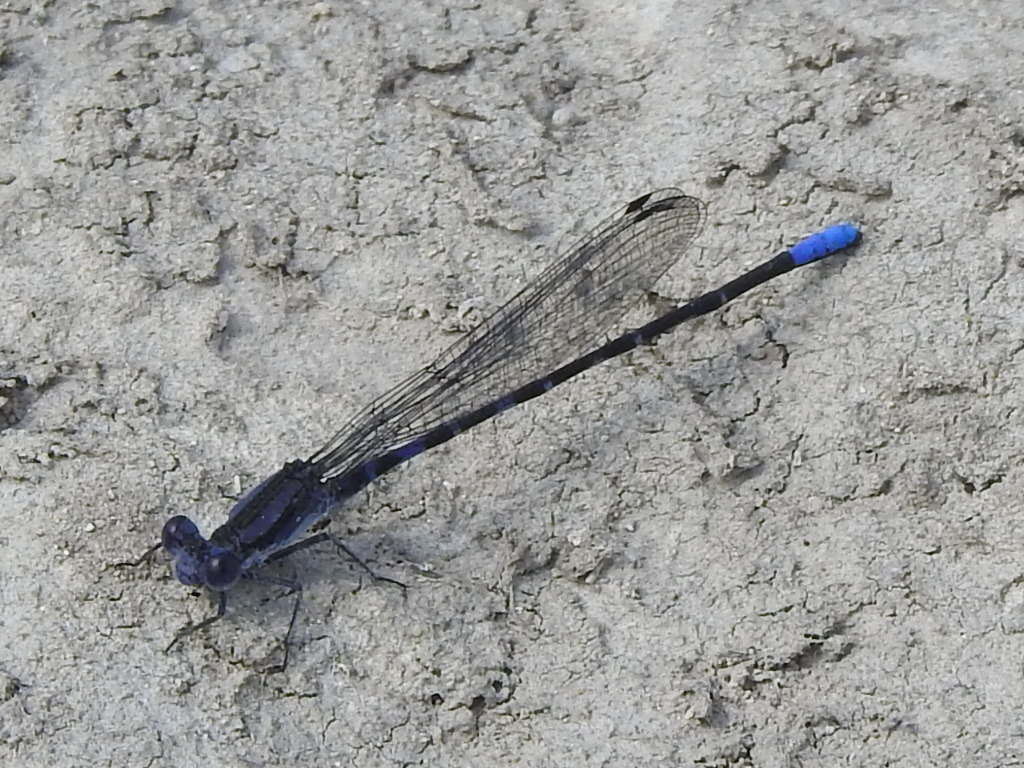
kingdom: Animalia
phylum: Arthropoda
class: Insecta
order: Odonata
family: Coenagrionidae
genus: Argia
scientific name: Argia immunda
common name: Kiowa dancer
